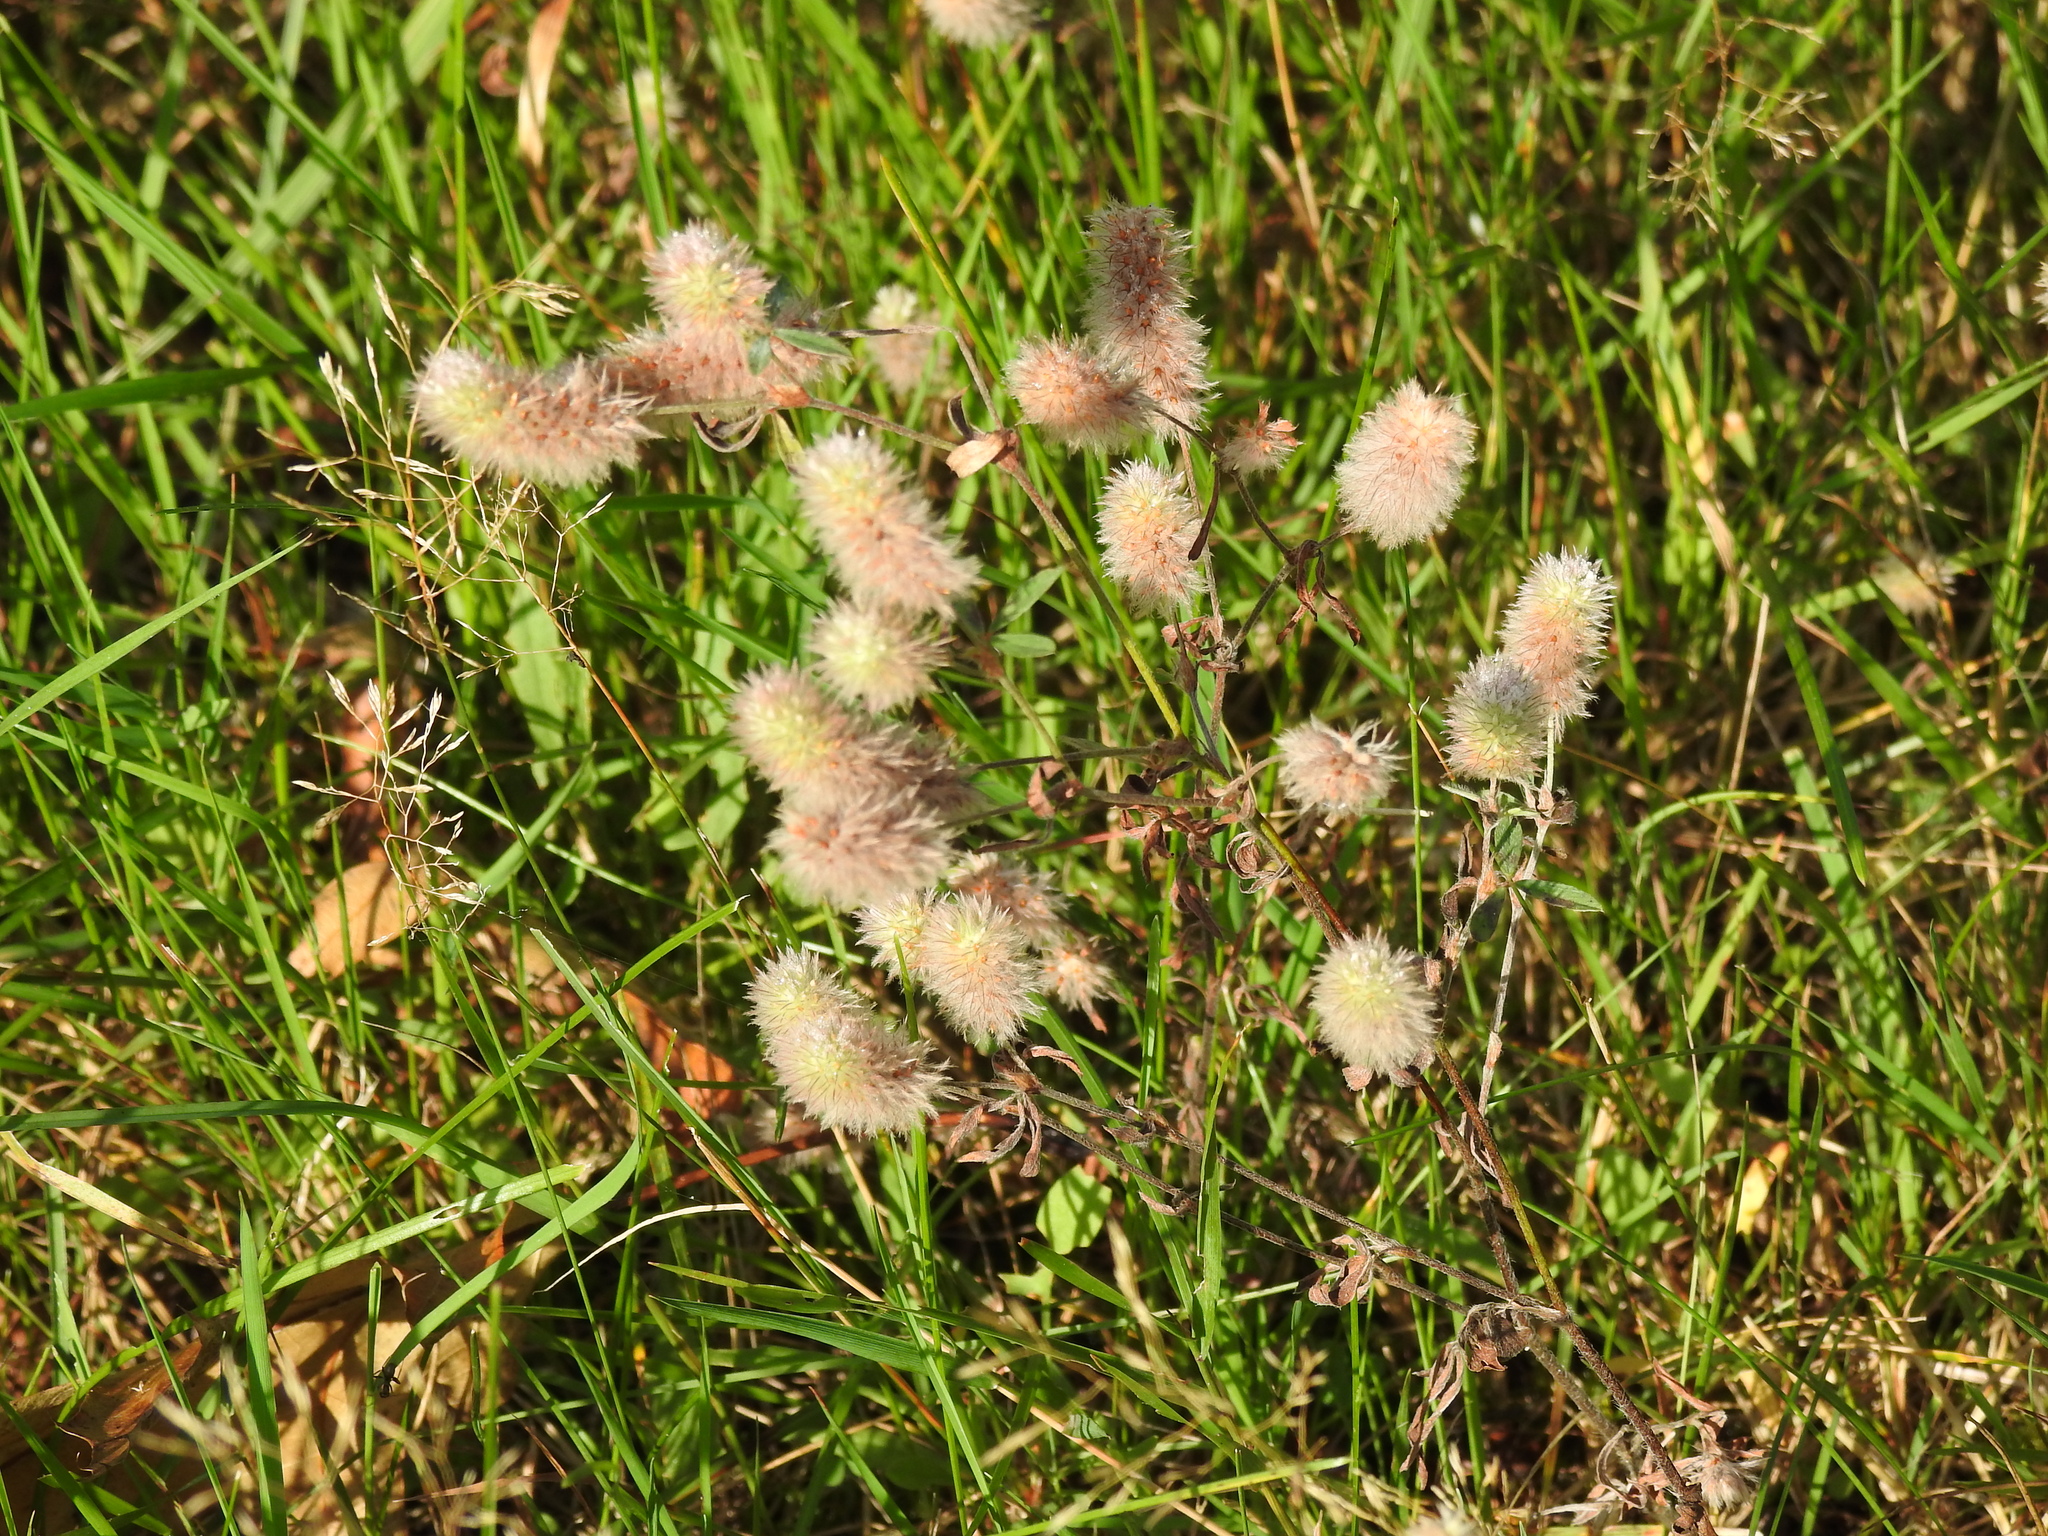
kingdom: Plantae
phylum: Tracheophyta
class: Magnoliopsida
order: Fabales
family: Fabaceae
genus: Trifolium
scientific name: Trifolium arvense
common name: Hare's-foot clover
